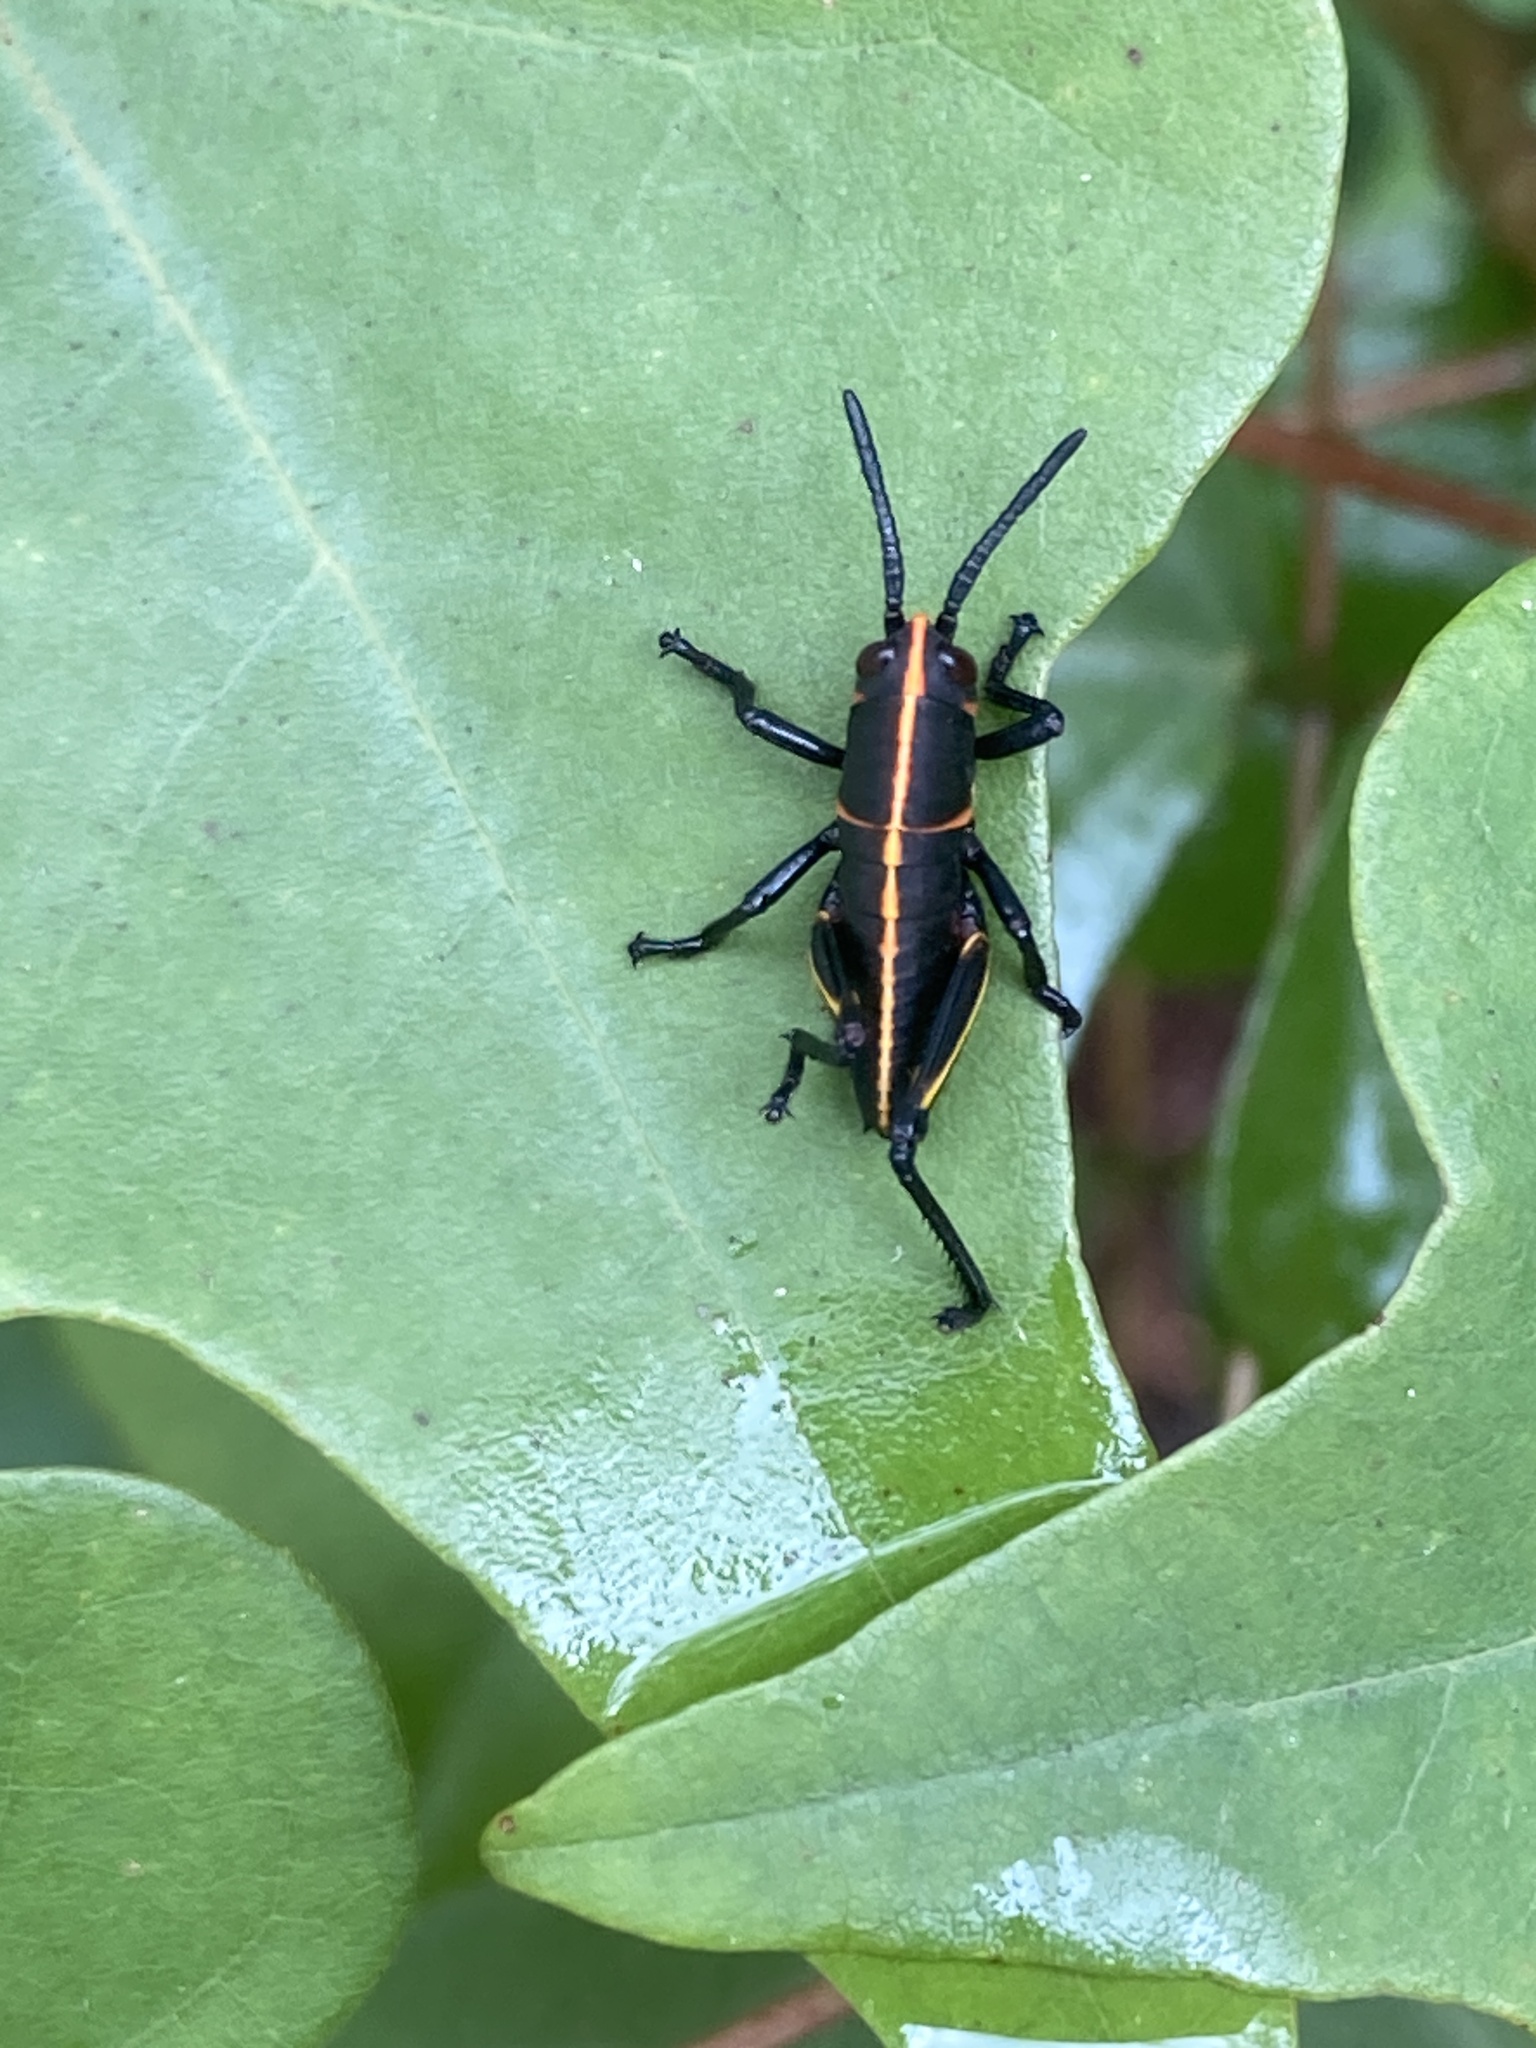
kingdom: Animalia
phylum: Arthropoda
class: Insecta
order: Orthoptera
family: Romaleidae
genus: Romalea
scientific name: Romalea microptera
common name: Eastern lubber grasshopper
